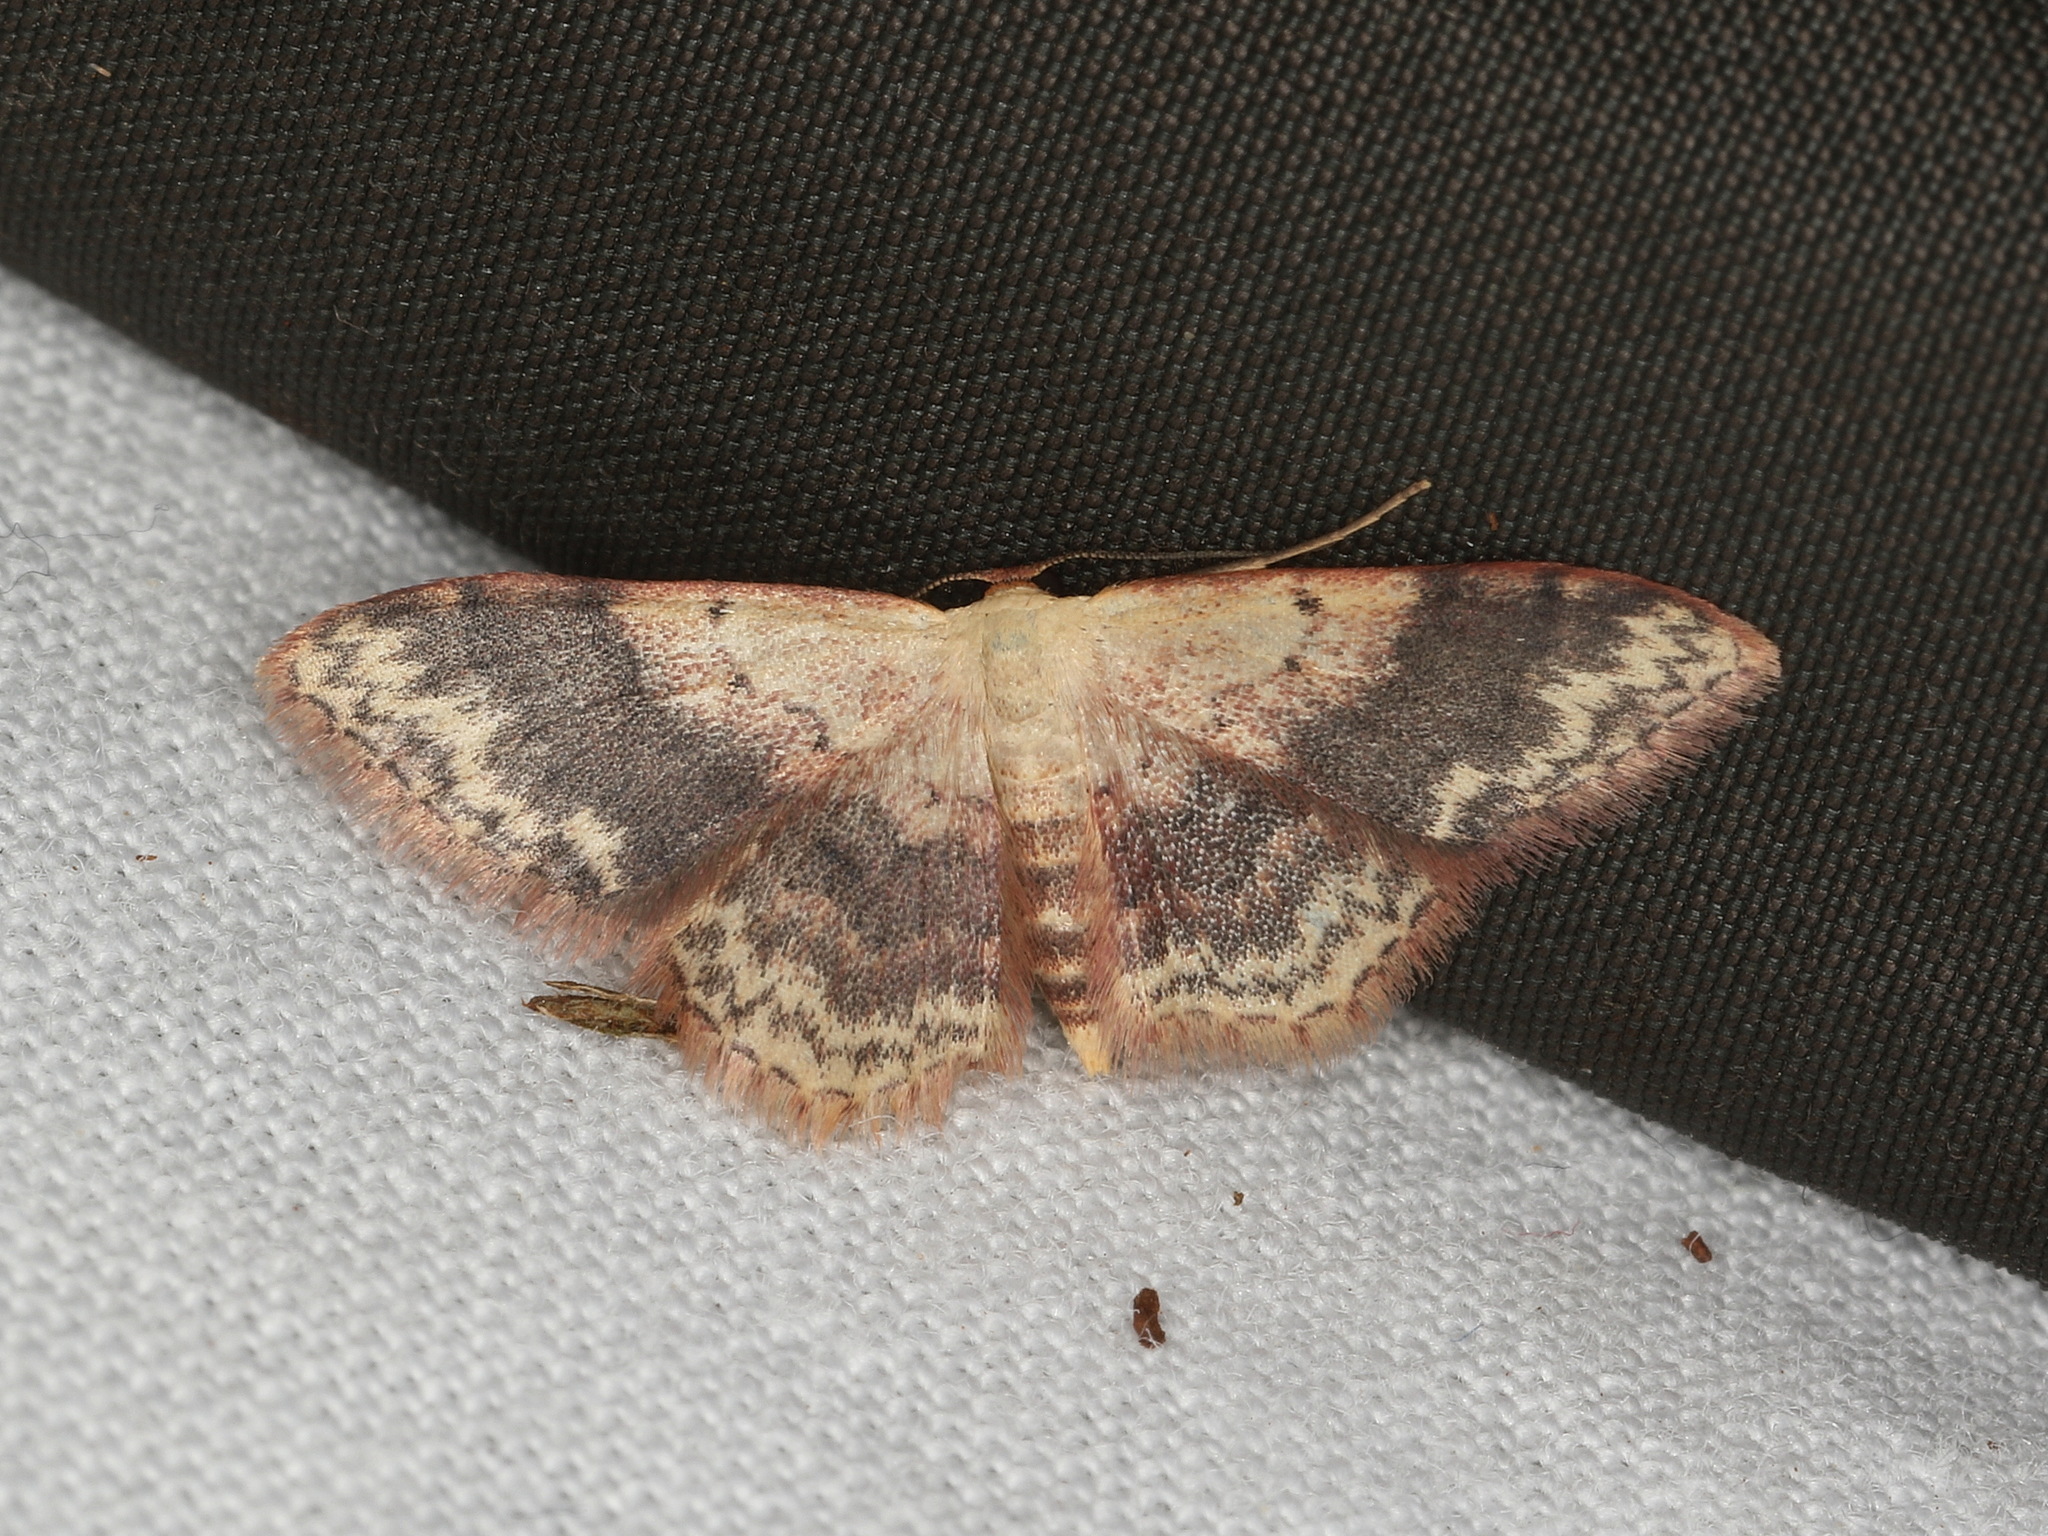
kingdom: Animalia
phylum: Arthropoda
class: Insecta
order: Lepidoptera
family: Geometridae
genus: Idaea
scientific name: Idaea halmaea
